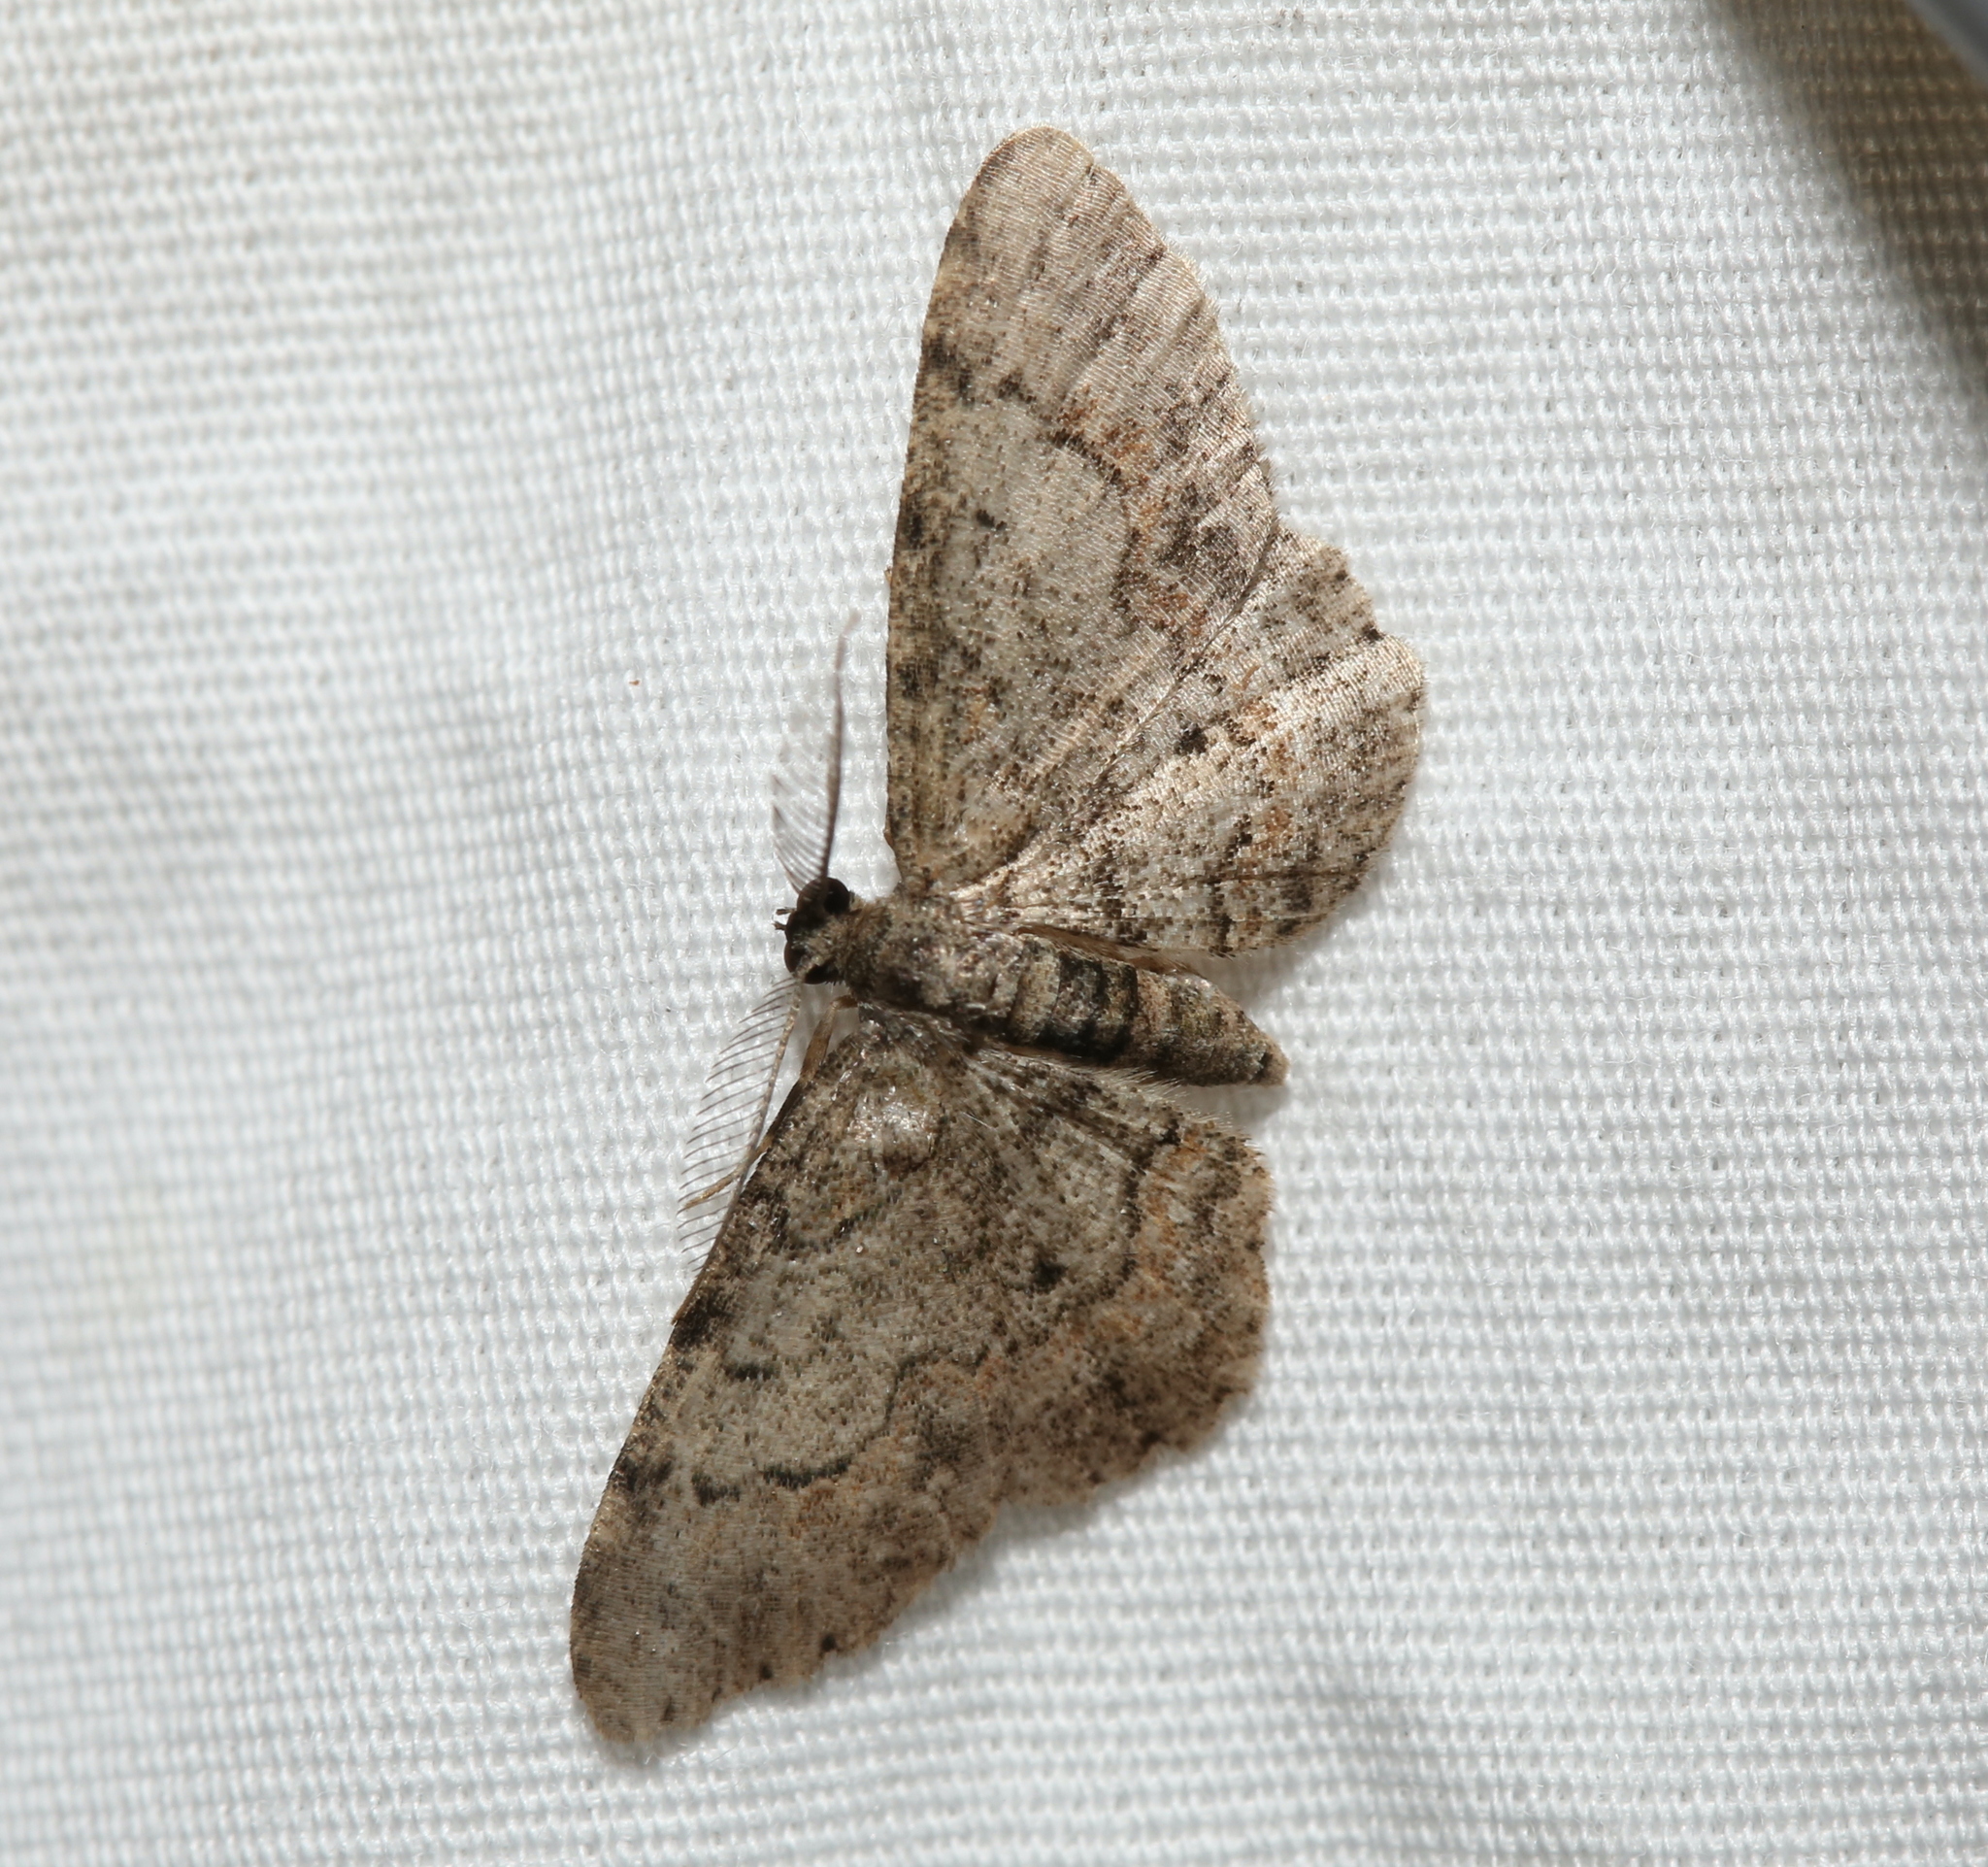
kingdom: Animalia
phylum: Arthropoda
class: Insecta
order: Lepidoptera
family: Geometridae
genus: Glenoides
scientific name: Glenoides texanaria
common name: Texas gray
